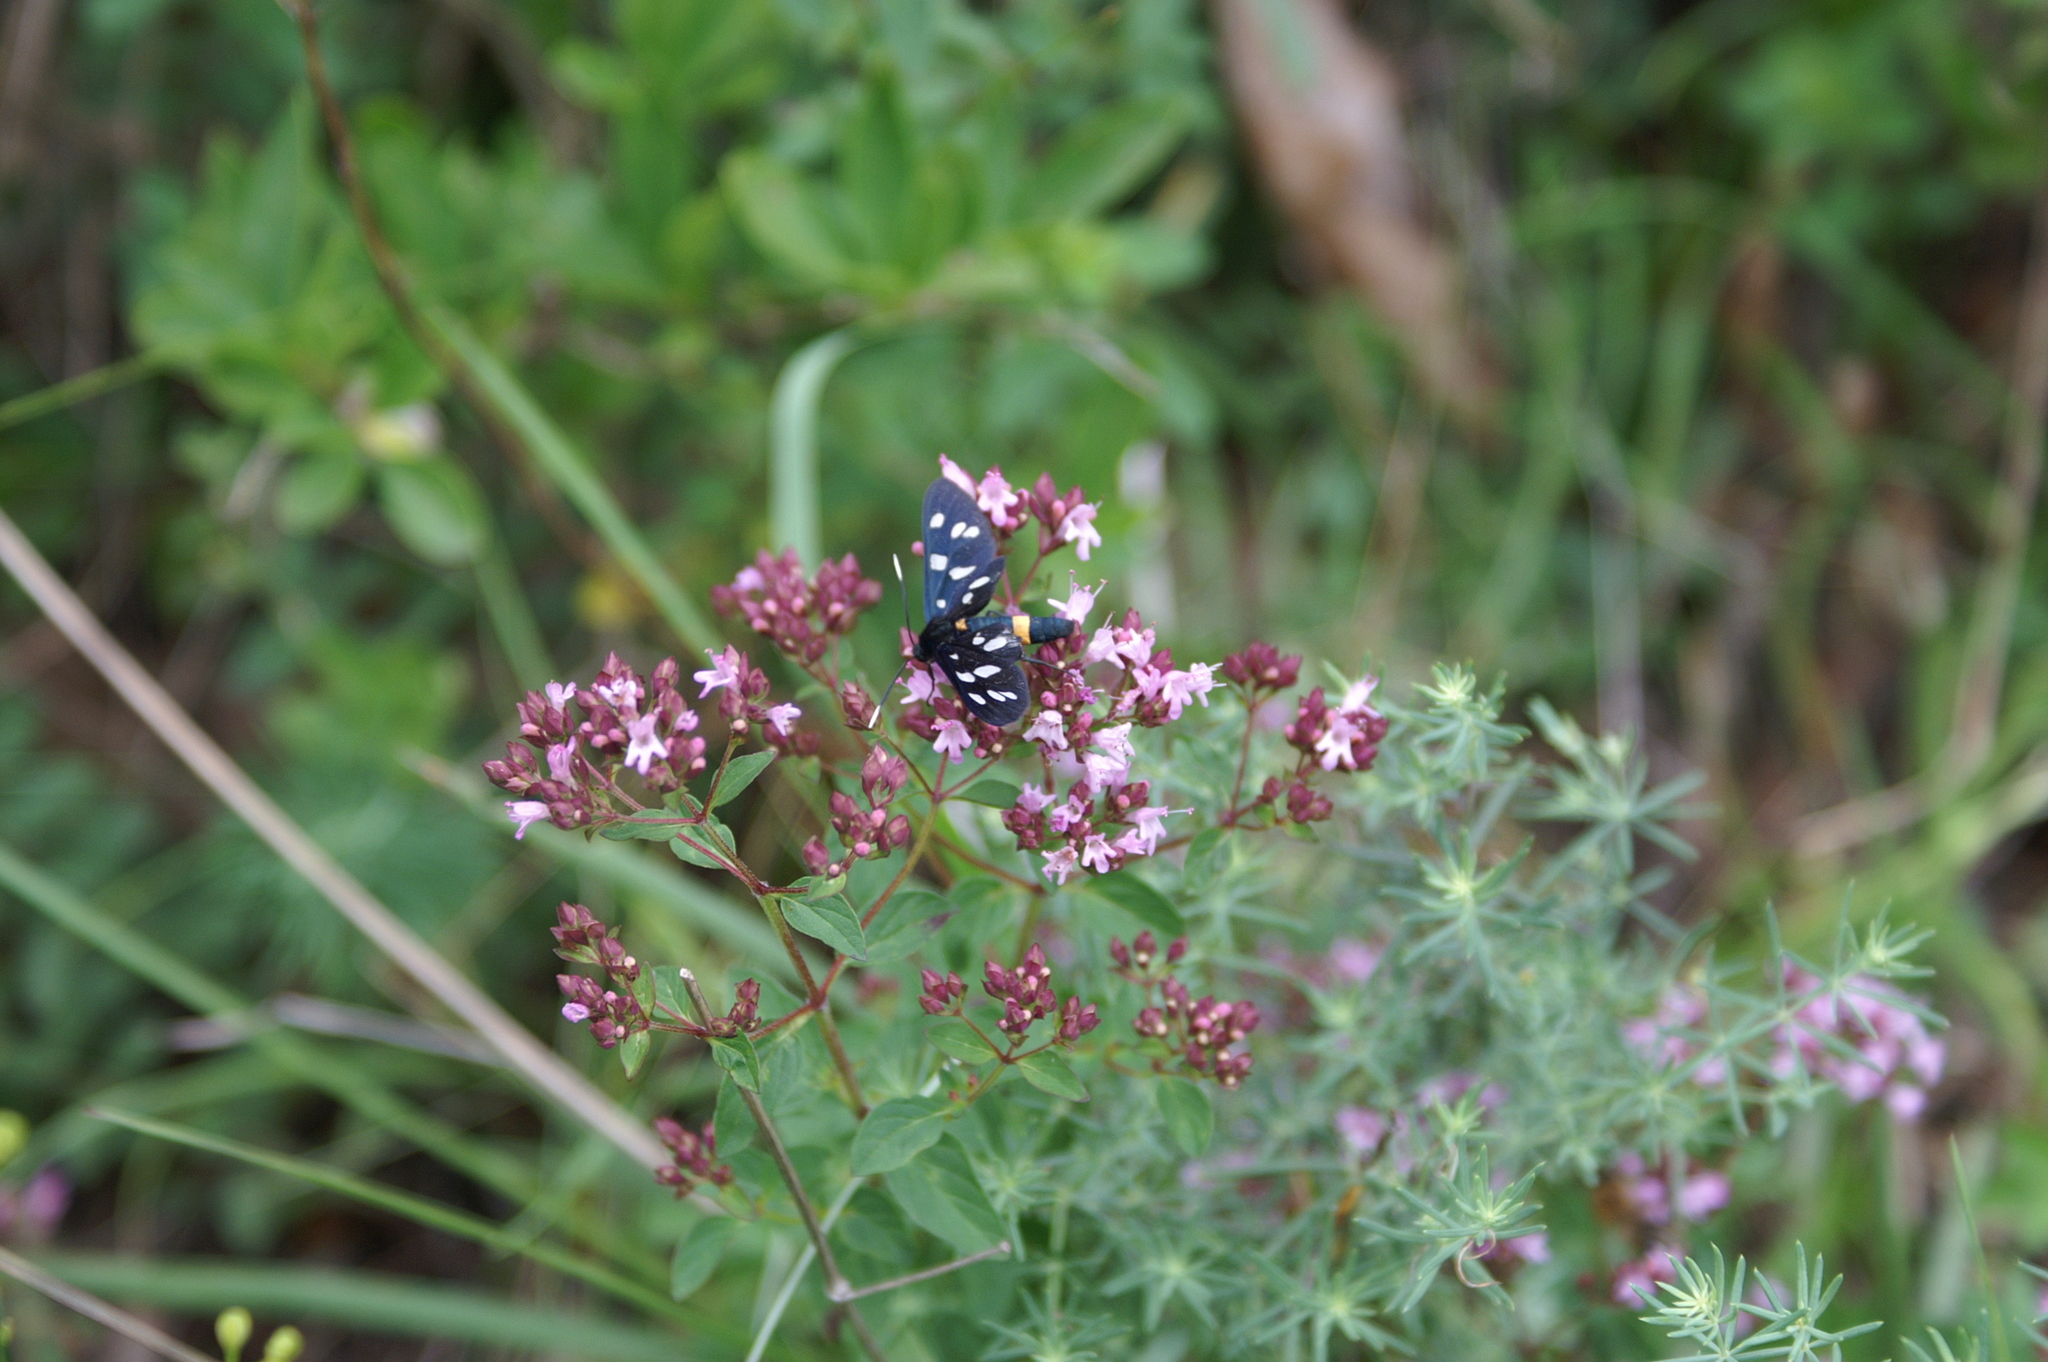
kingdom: Animalia
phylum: Arthropoda
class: Insecta
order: Lepidoptera
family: Erebidae
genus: Amata
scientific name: Amata phegea
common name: Nine-spotted
